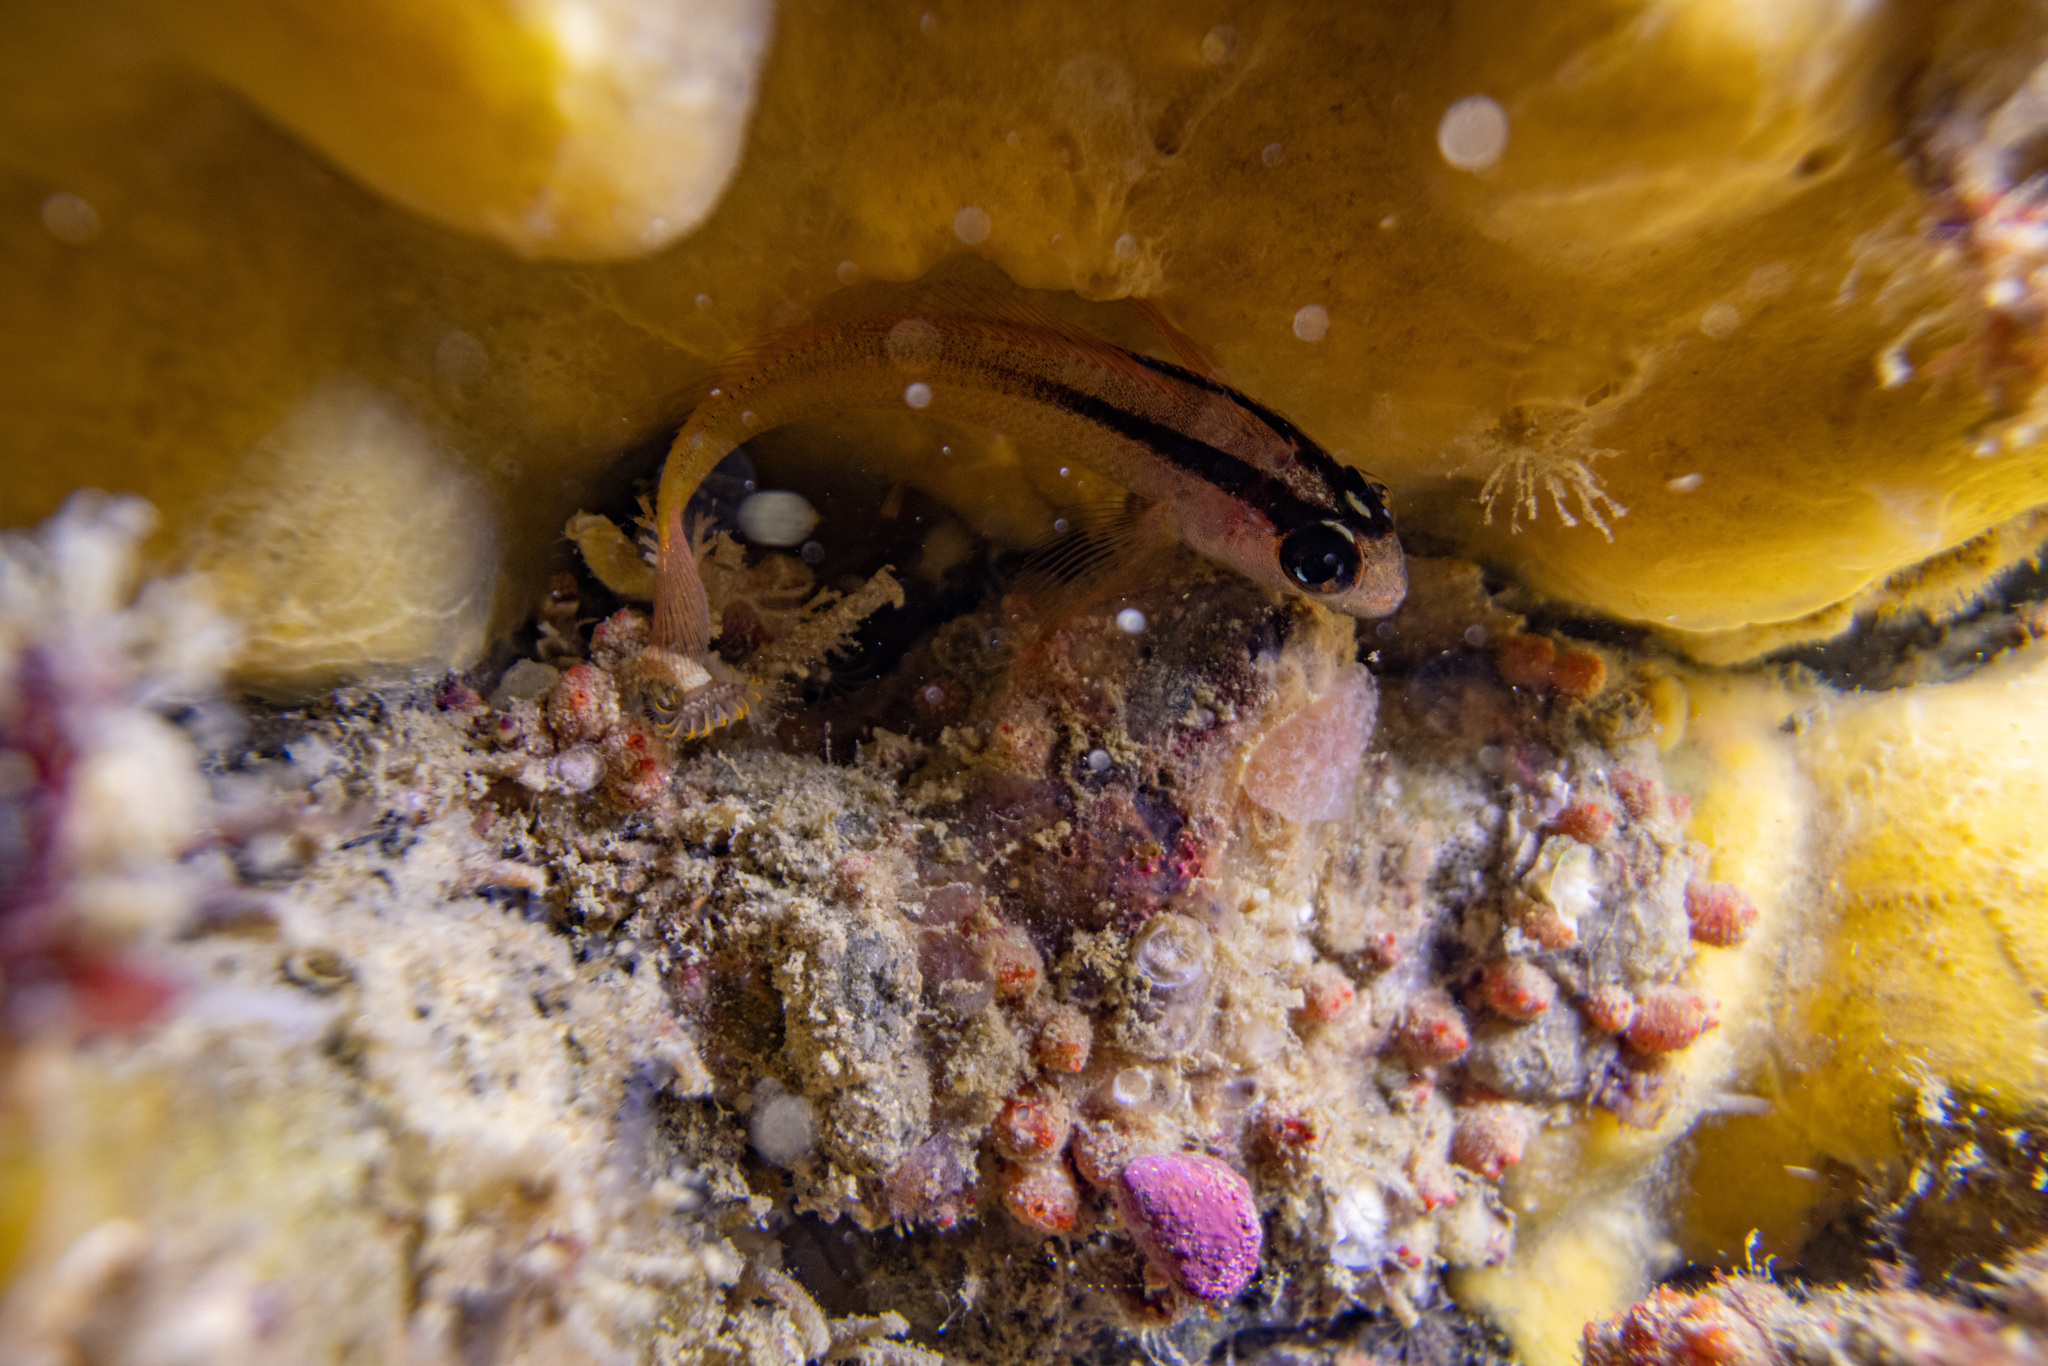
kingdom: Animalia
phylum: Chordata
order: Perciformes
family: Tripterygiidae
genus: Forsterygion
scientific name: Forsterygion flavonigrum
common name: Yellow-and-black triplefin
